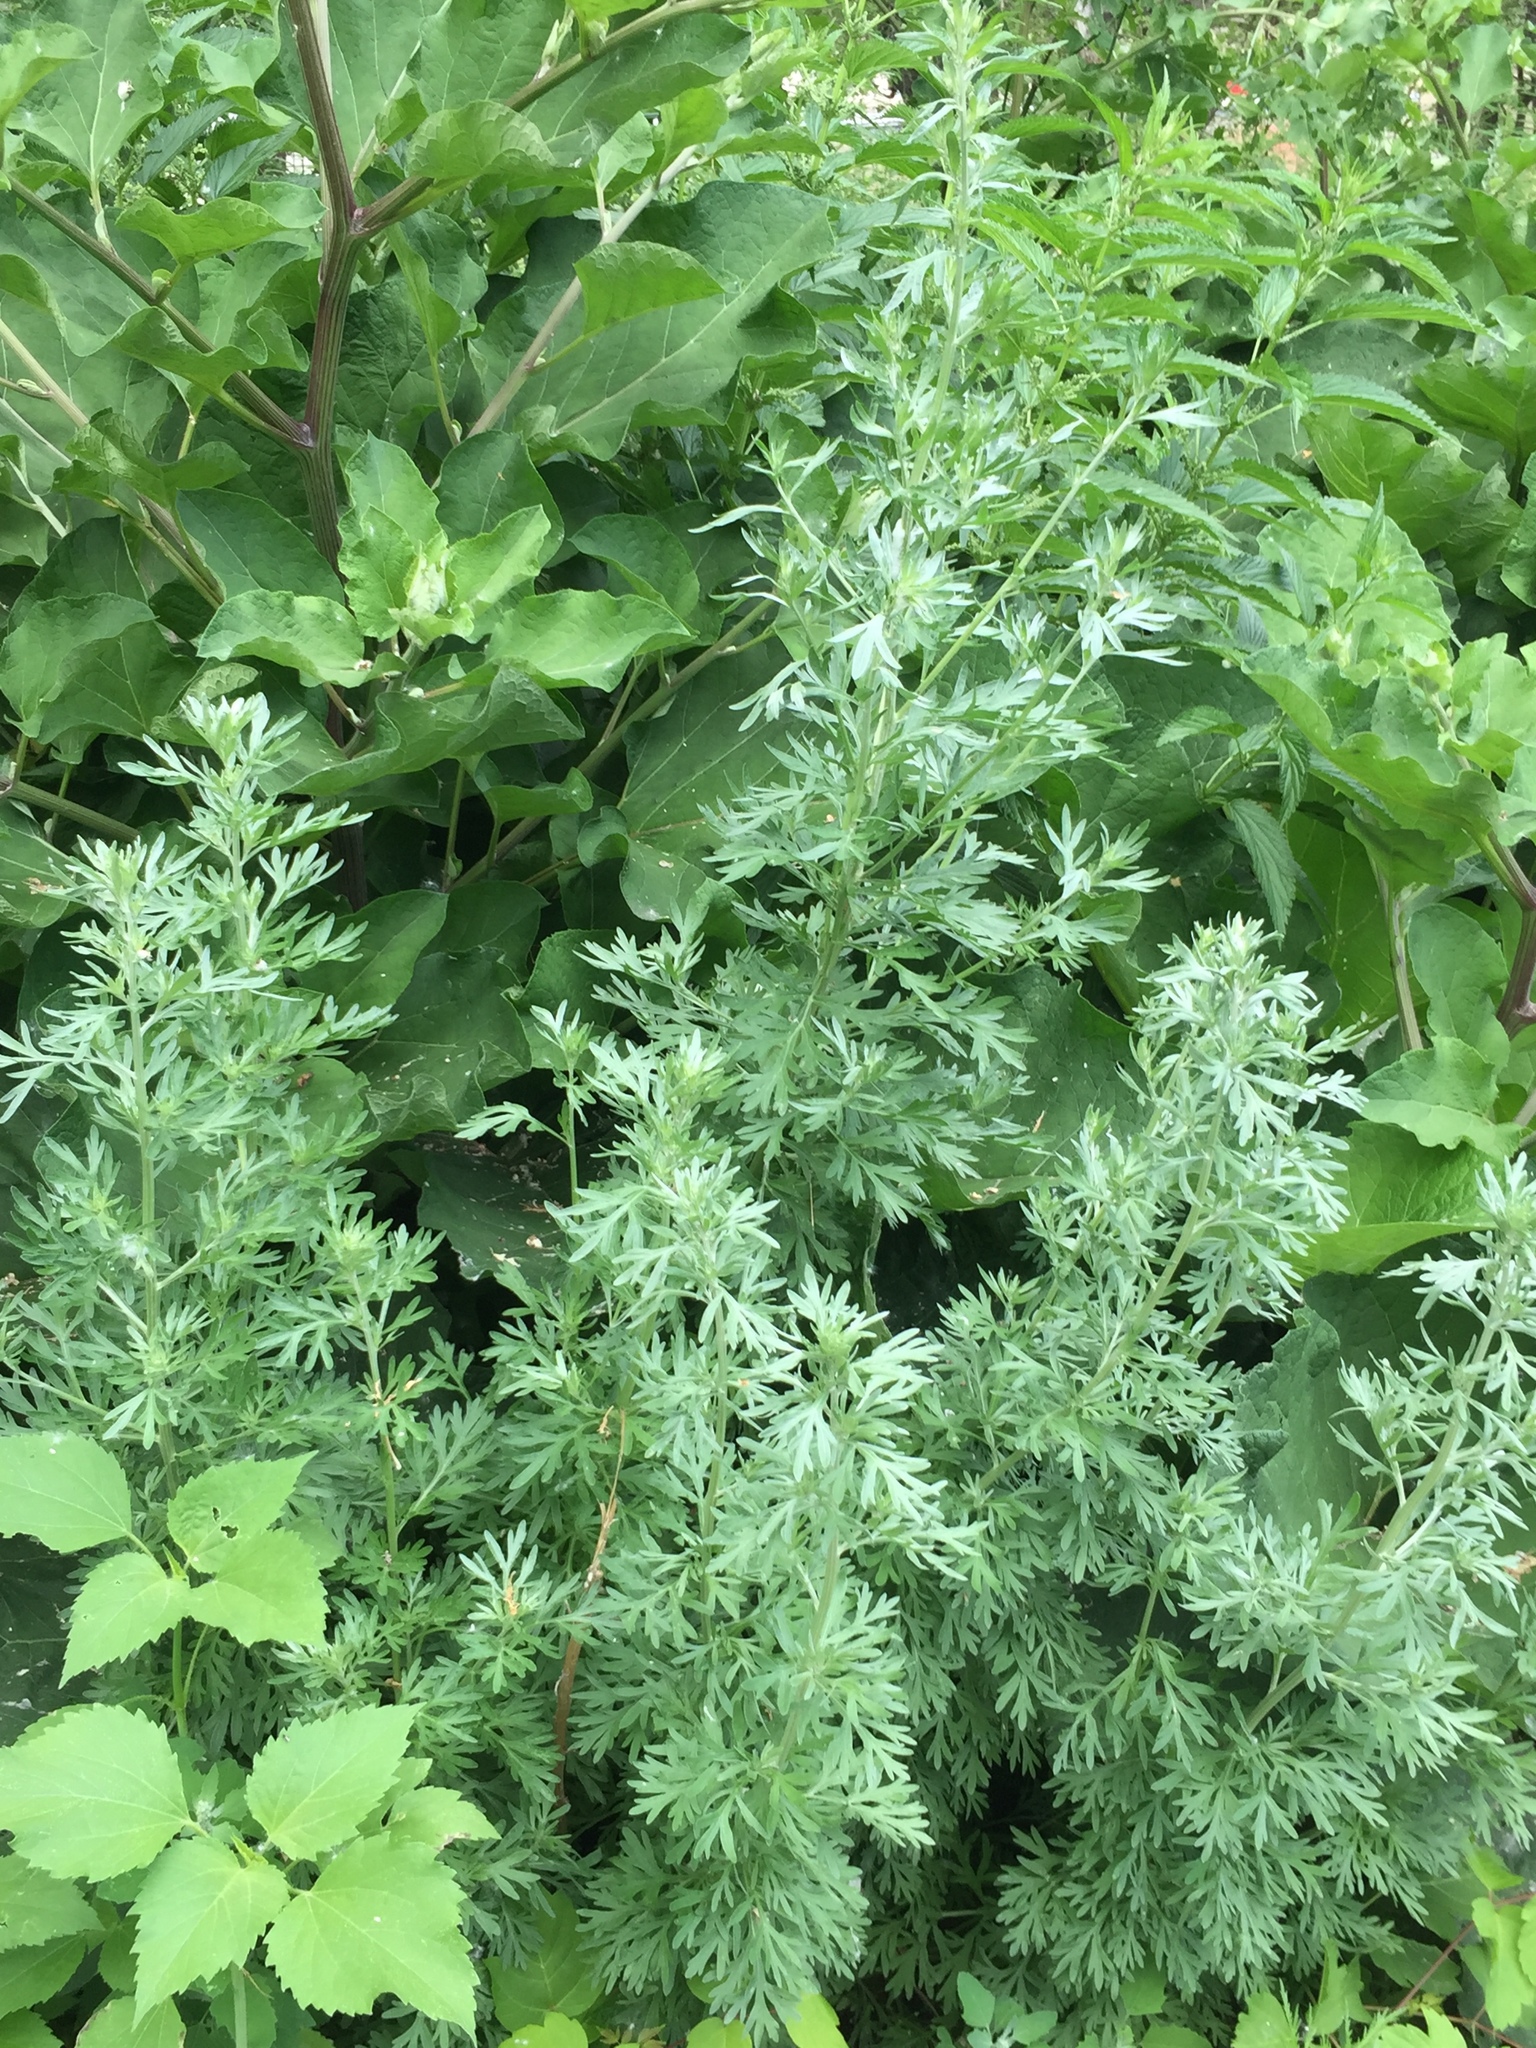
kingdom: Plantae
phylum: Tracheophyta
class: Magnoliopsida
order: Asterales
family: Asteraceae
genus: Artemisia
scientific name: Artemisia absinthium
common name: Wormwood
